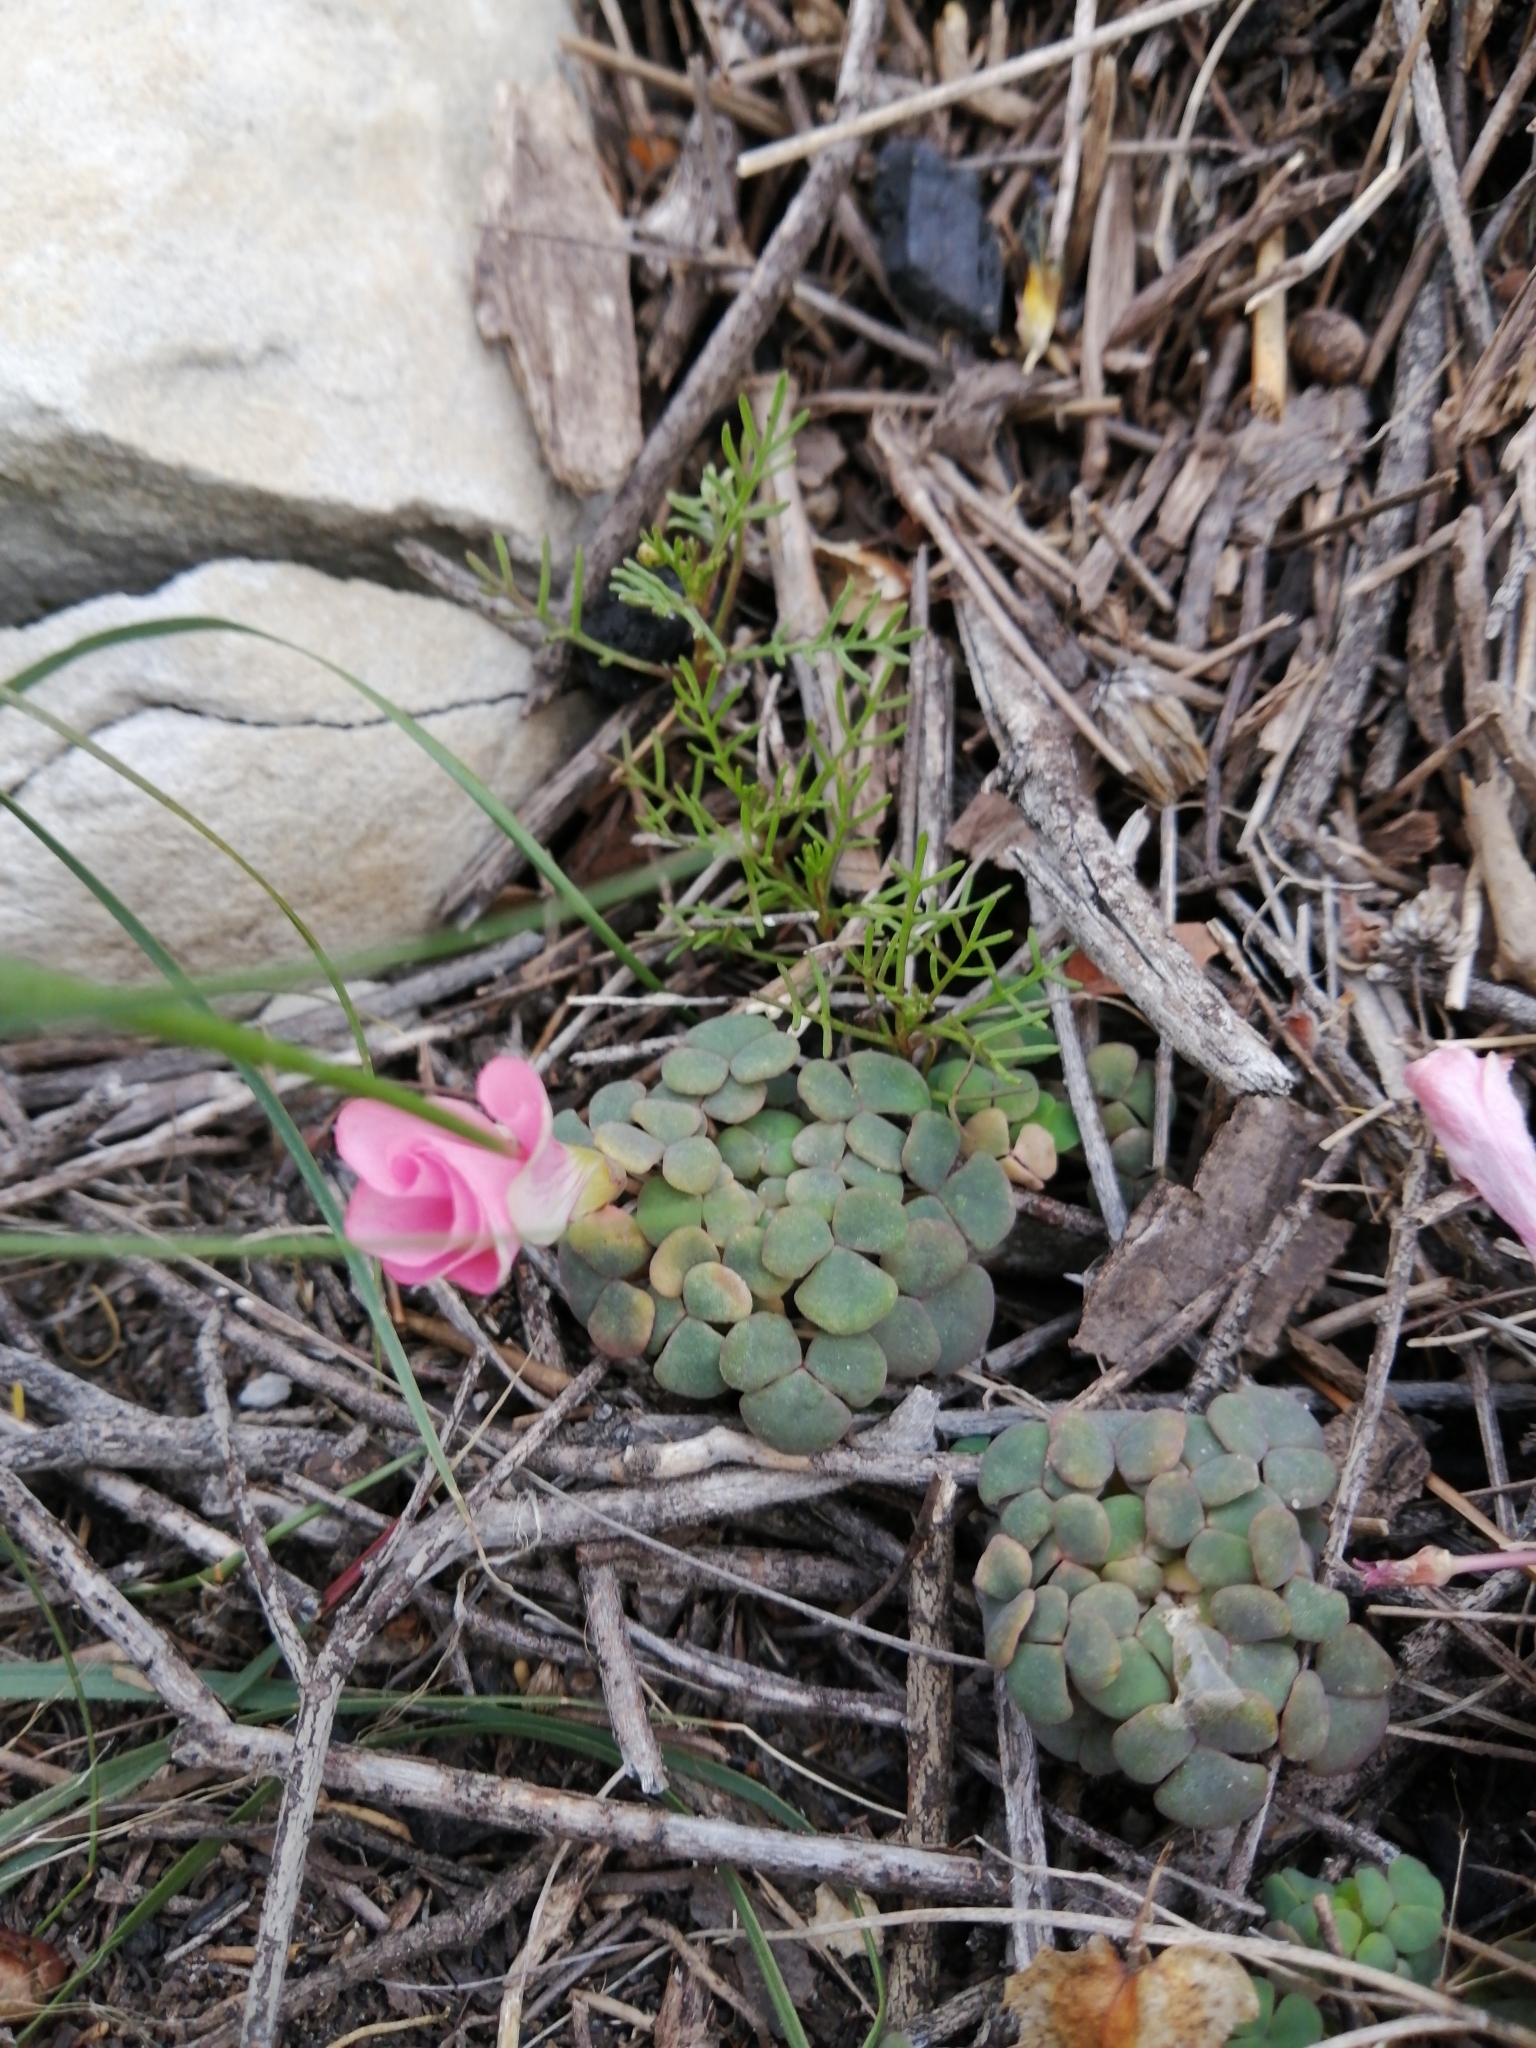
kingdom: Plantae
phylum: Tracheophyta
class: Magnoliopsida
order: Oxalidales
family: Oxalidaceae
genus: Oxalis
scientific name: Oxalis convexula
